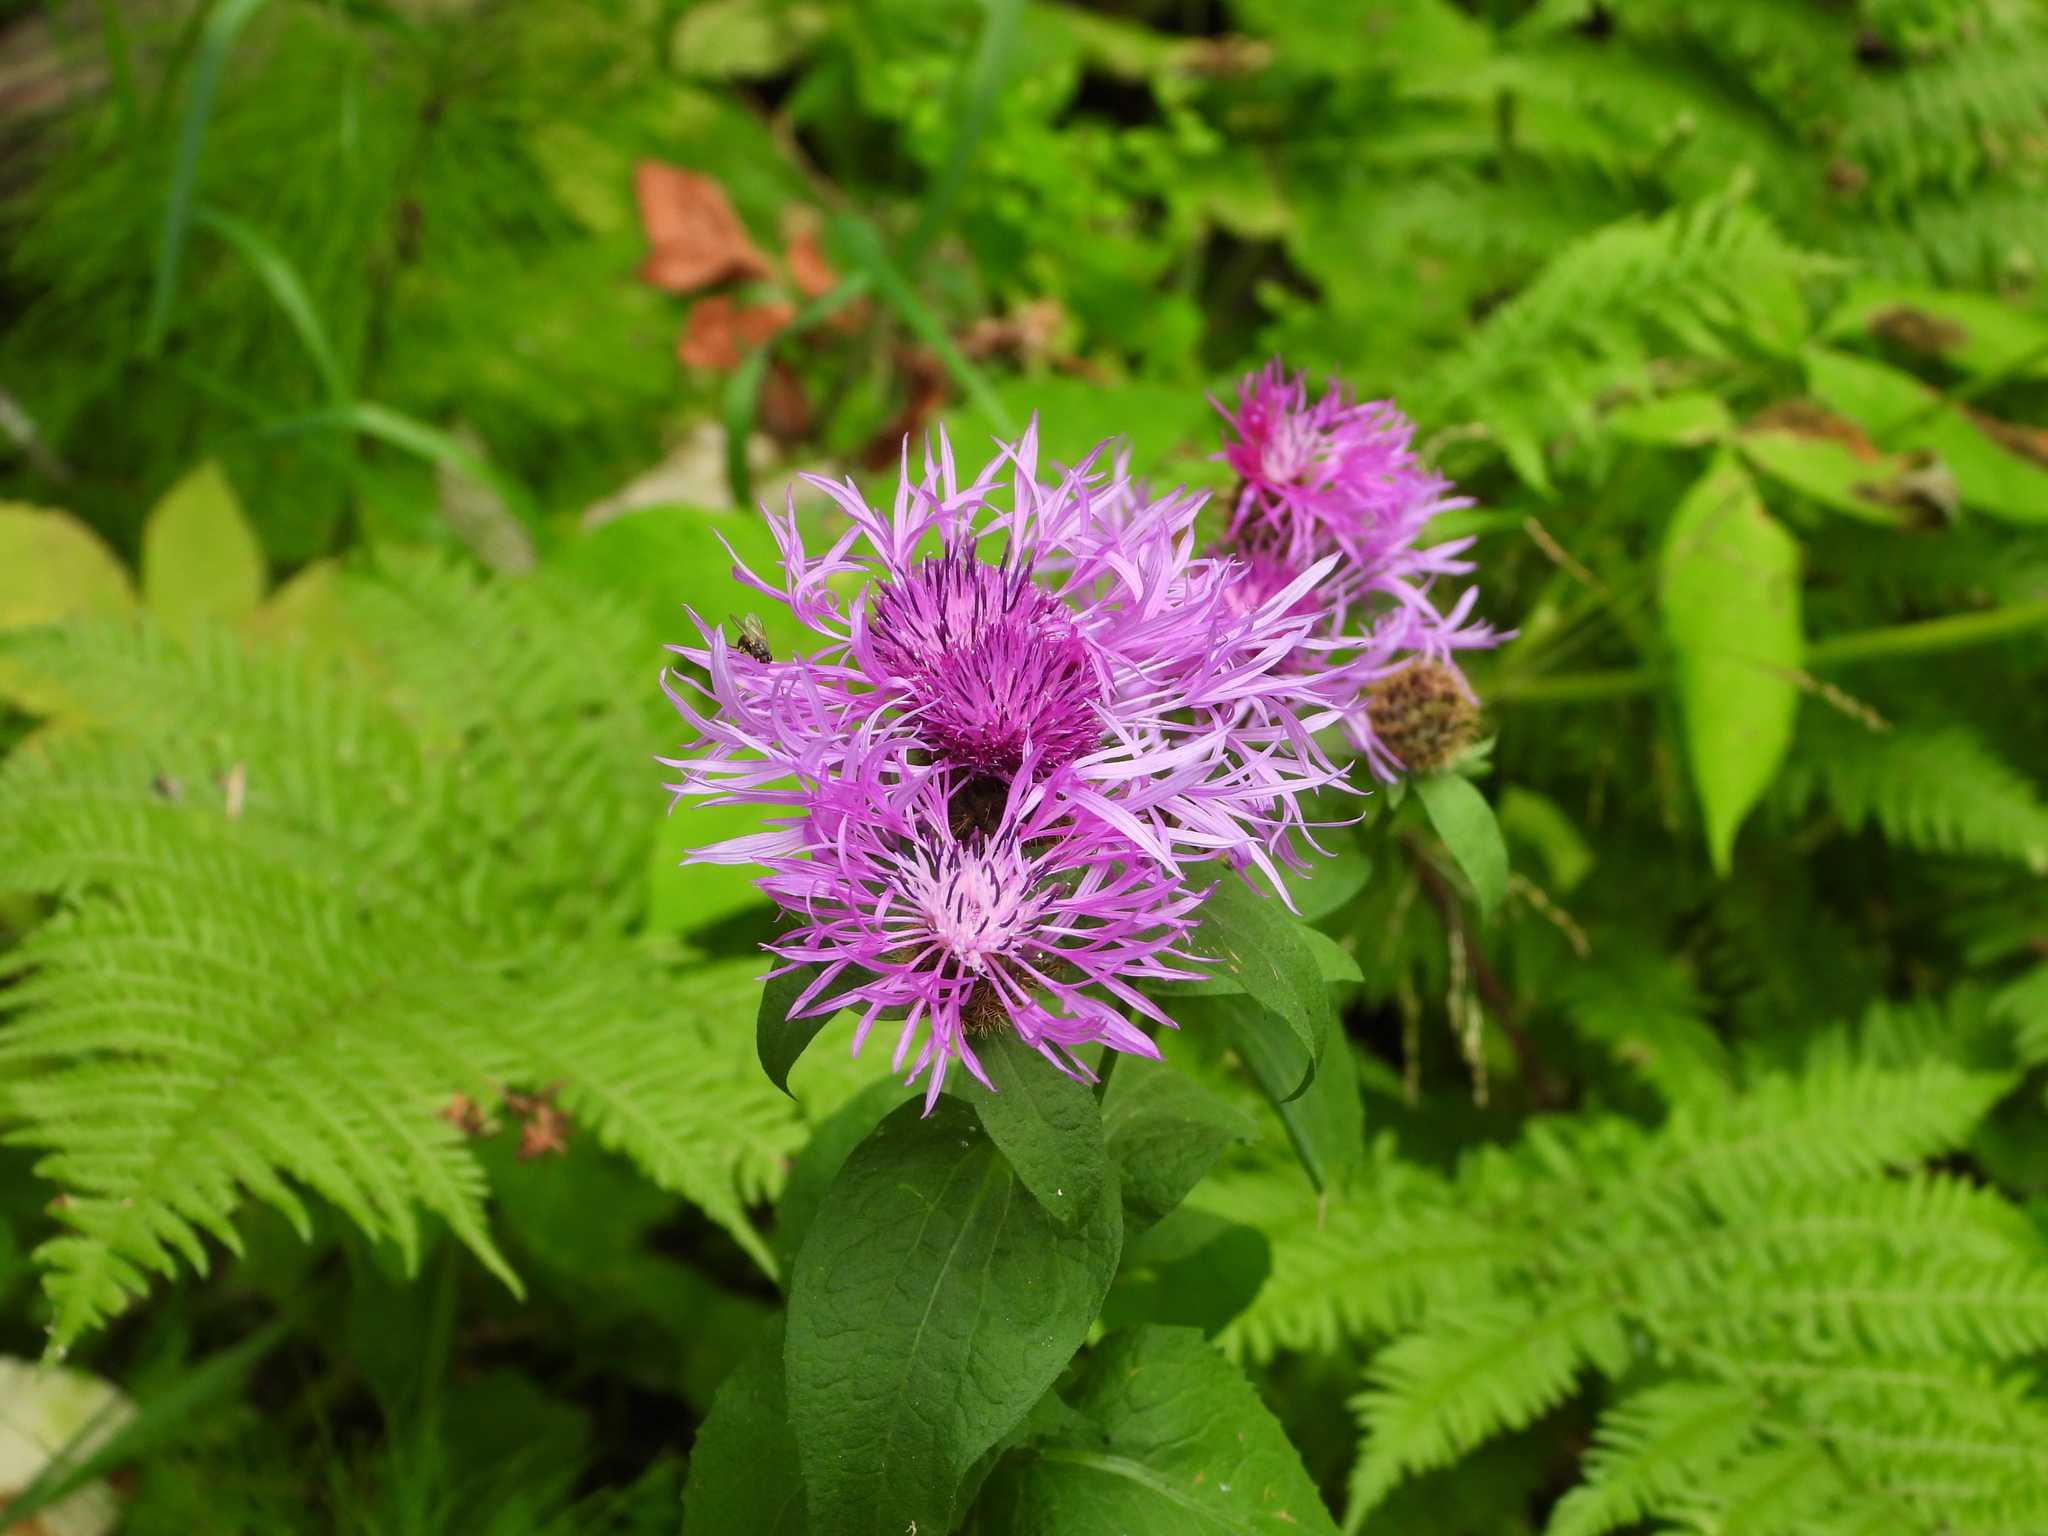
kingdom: Plantae
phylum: Tracheophyta
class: Magnoliopsida
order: Asterales
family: Asteraceae
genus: Centaurea
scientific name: Centaurea phrygia
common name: Wig knapweed
